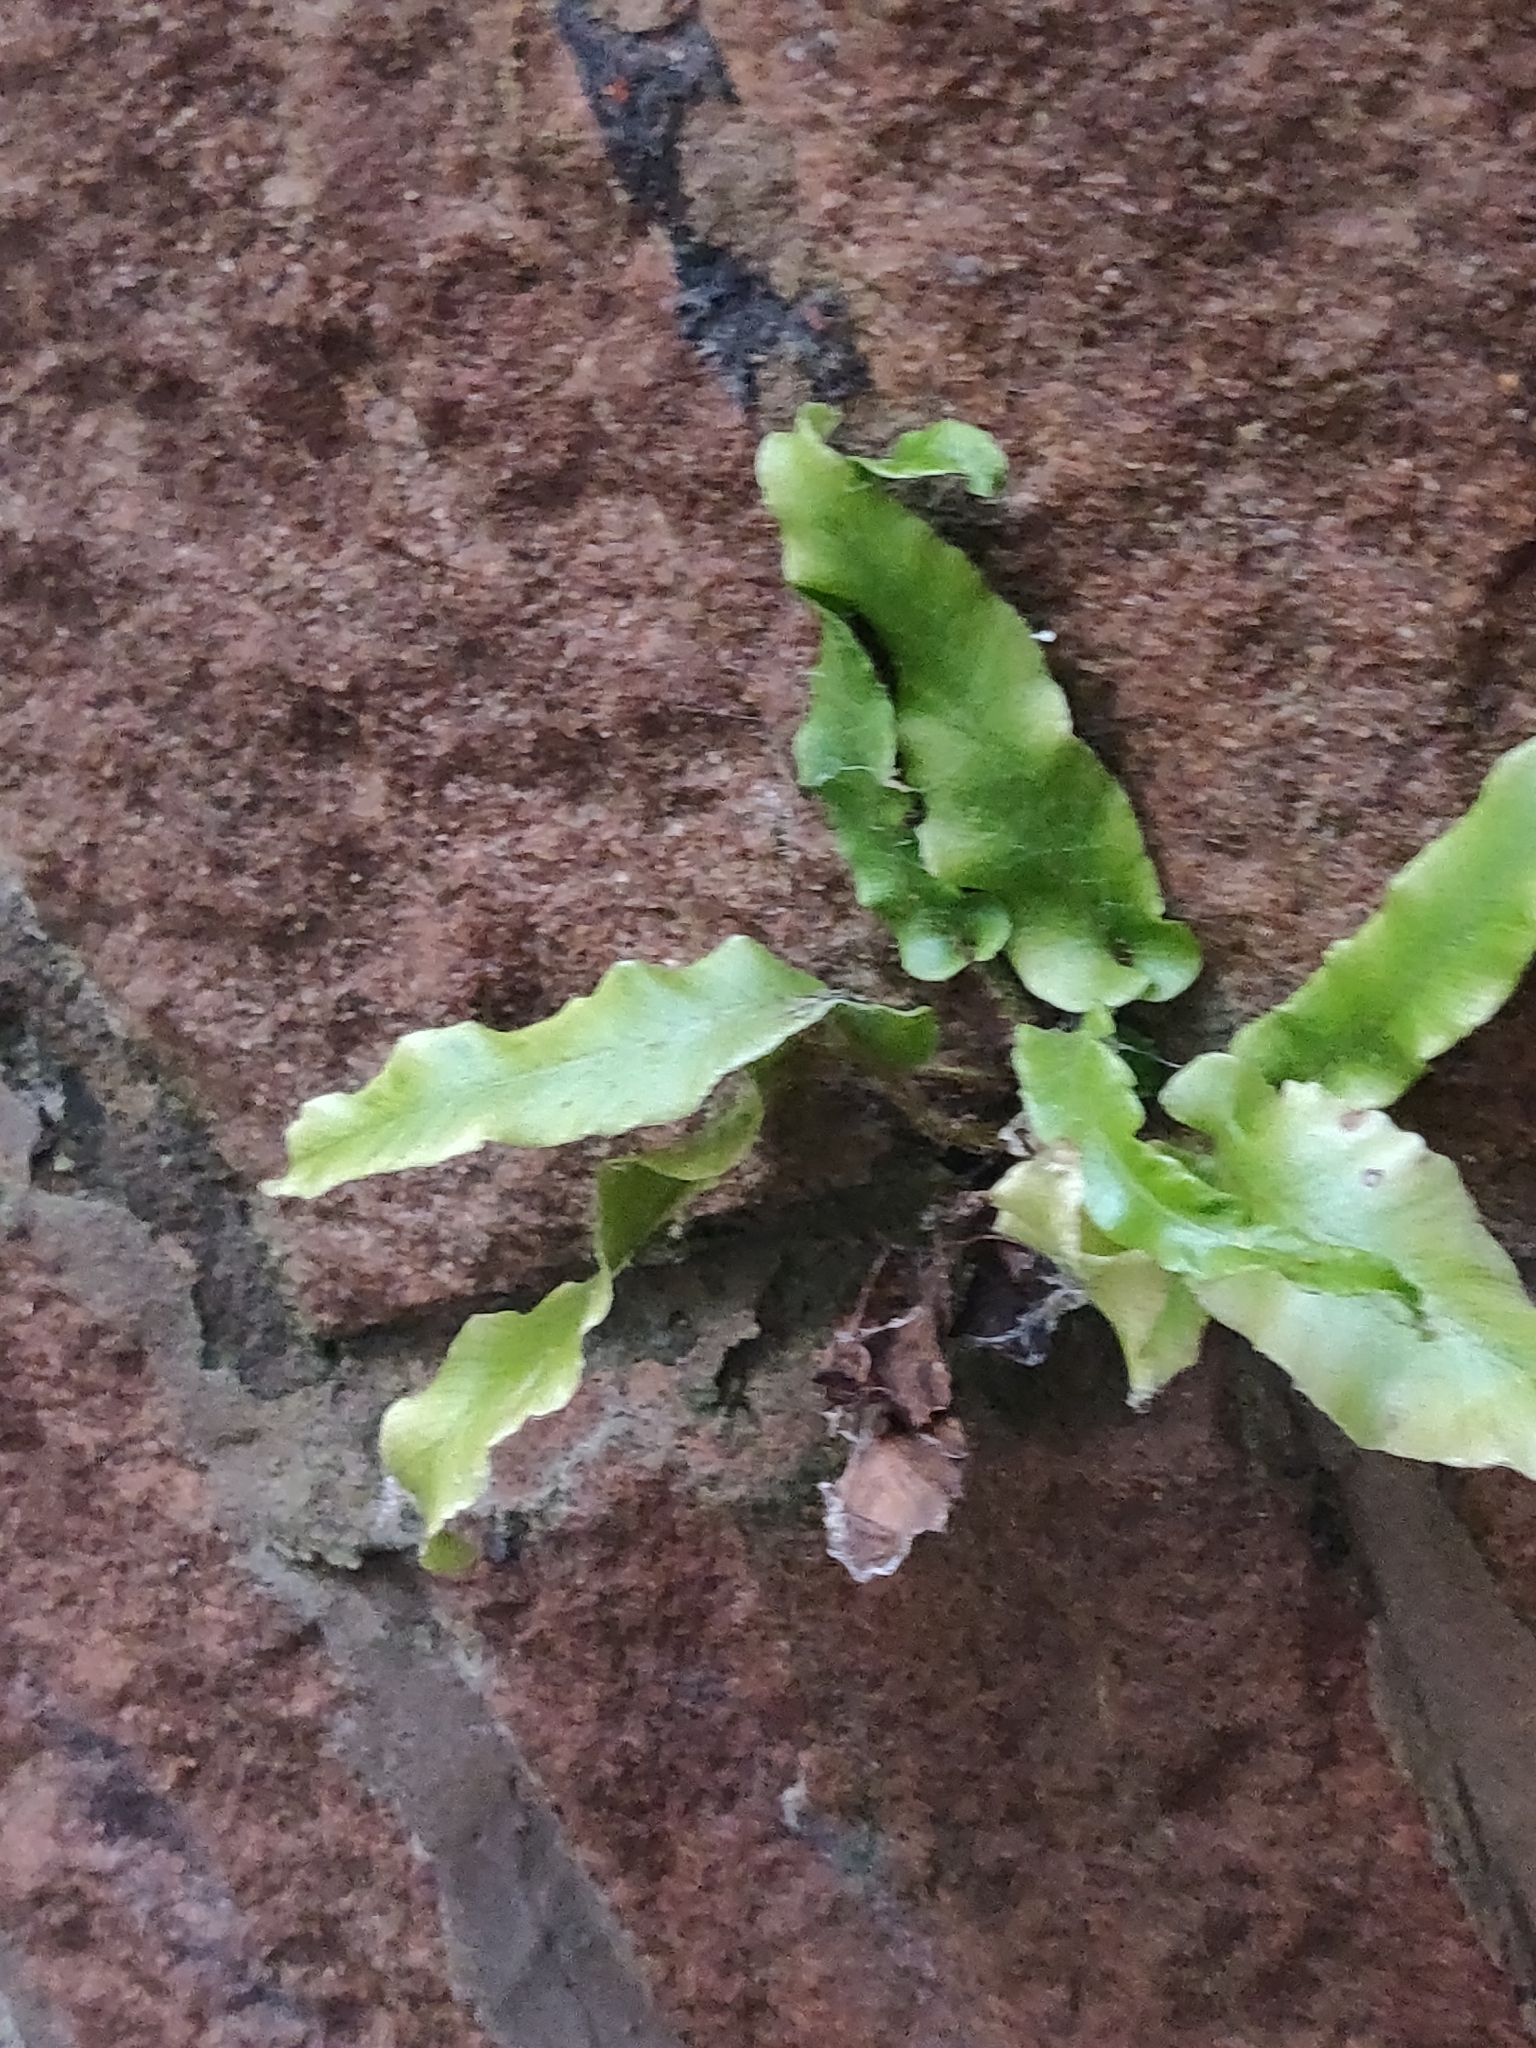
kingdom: Plantae
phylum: Tracheophyta
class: Polypodiopsida
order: Polypodiales
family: Aspleniaceae
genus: Asplenium
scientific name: Asplenium scolopendrium
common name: Hart's-tongue fern
